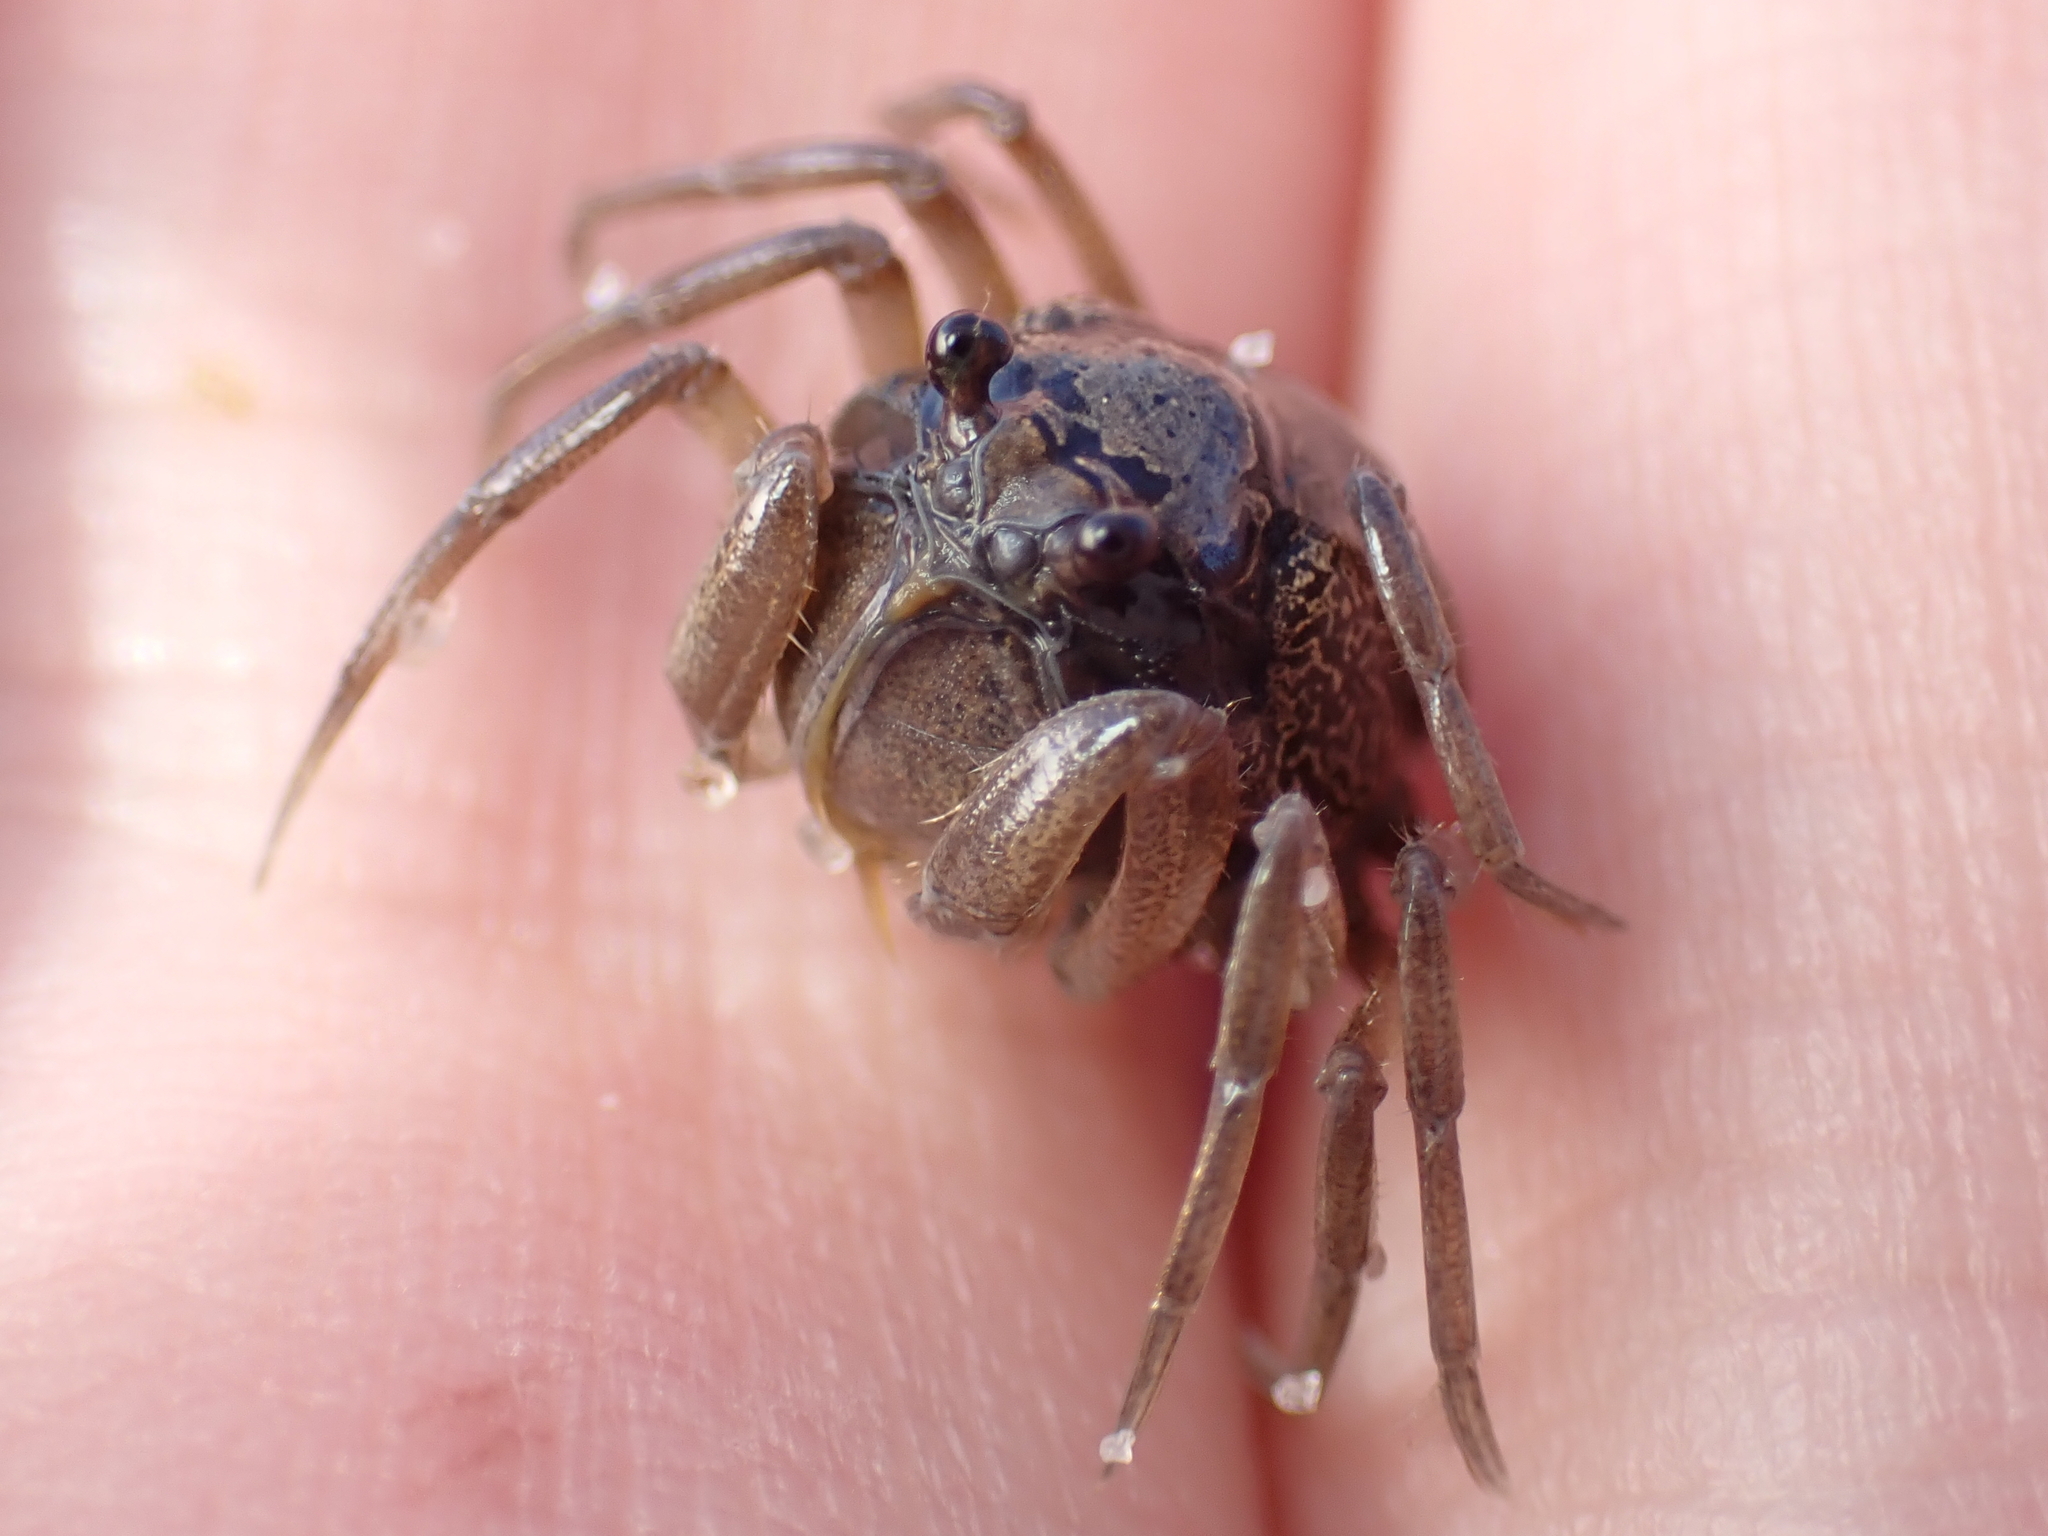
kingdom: Animalia
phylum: Arthropoda
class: Malacostraca
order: Decapoda
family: Mictyridae
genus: Mictyris
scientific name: Mictyris longicarpus
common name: Light-blue soldier crab
